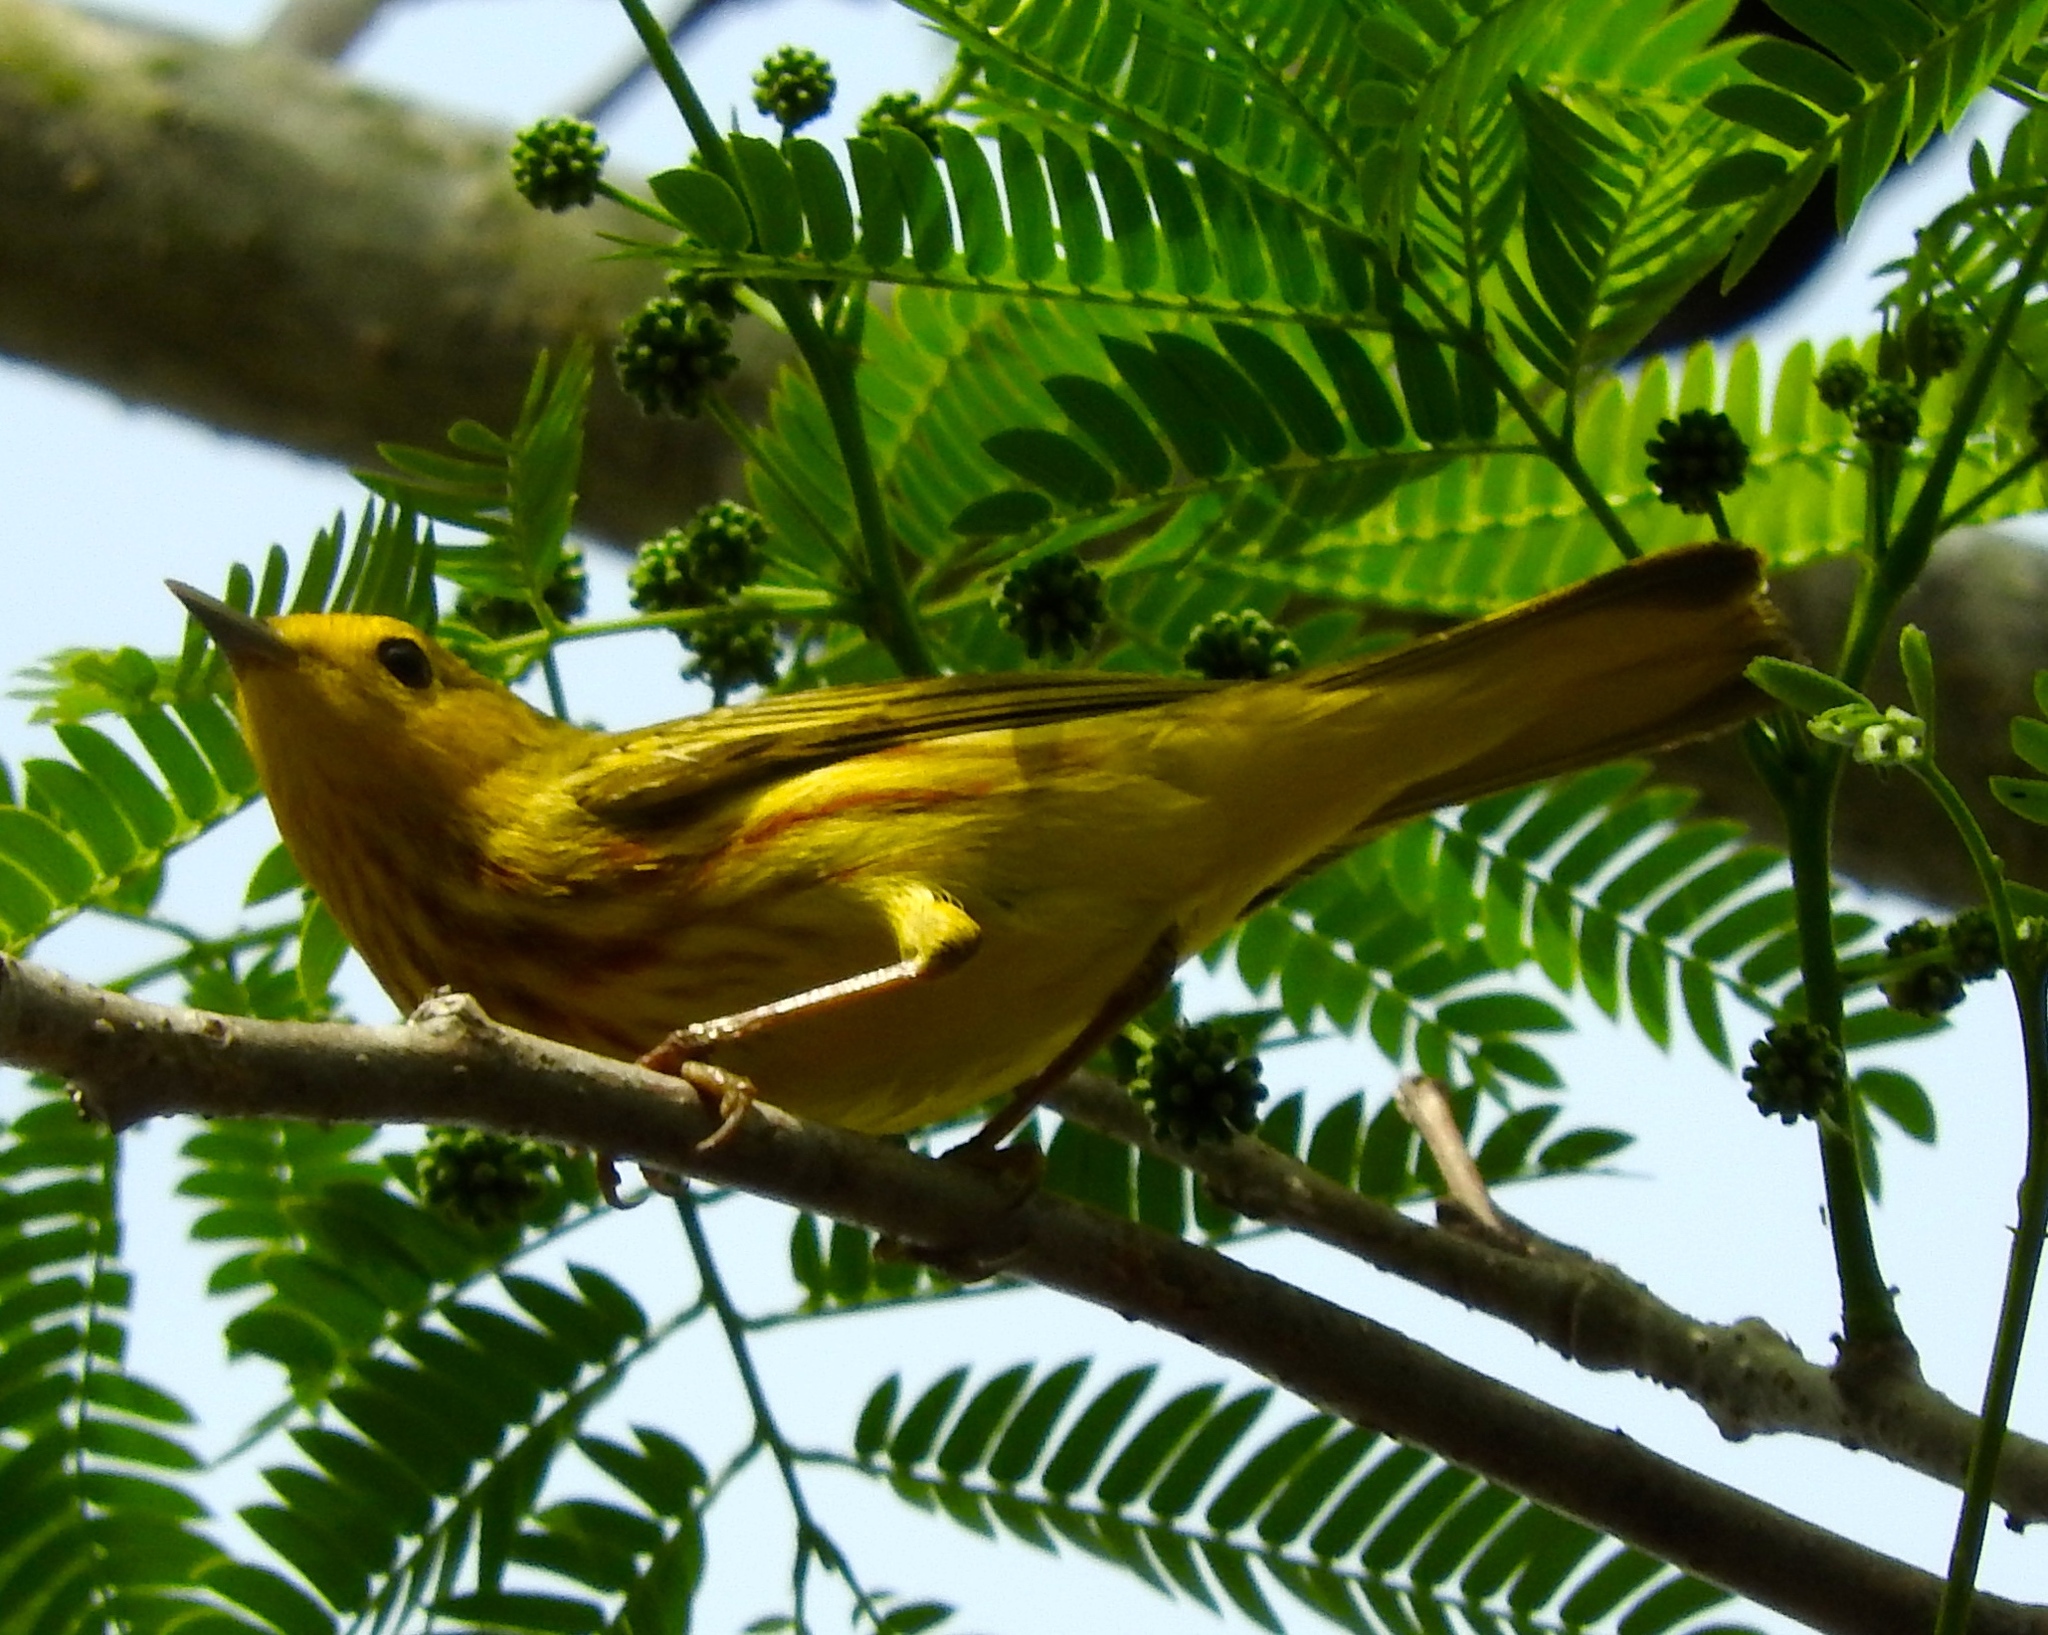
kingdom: Animalia
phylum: Chordata
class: Aves
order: Passeriformes
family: Parulidae
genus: Setophaga
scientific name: Setophaga petechia
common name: Yellow warbler
